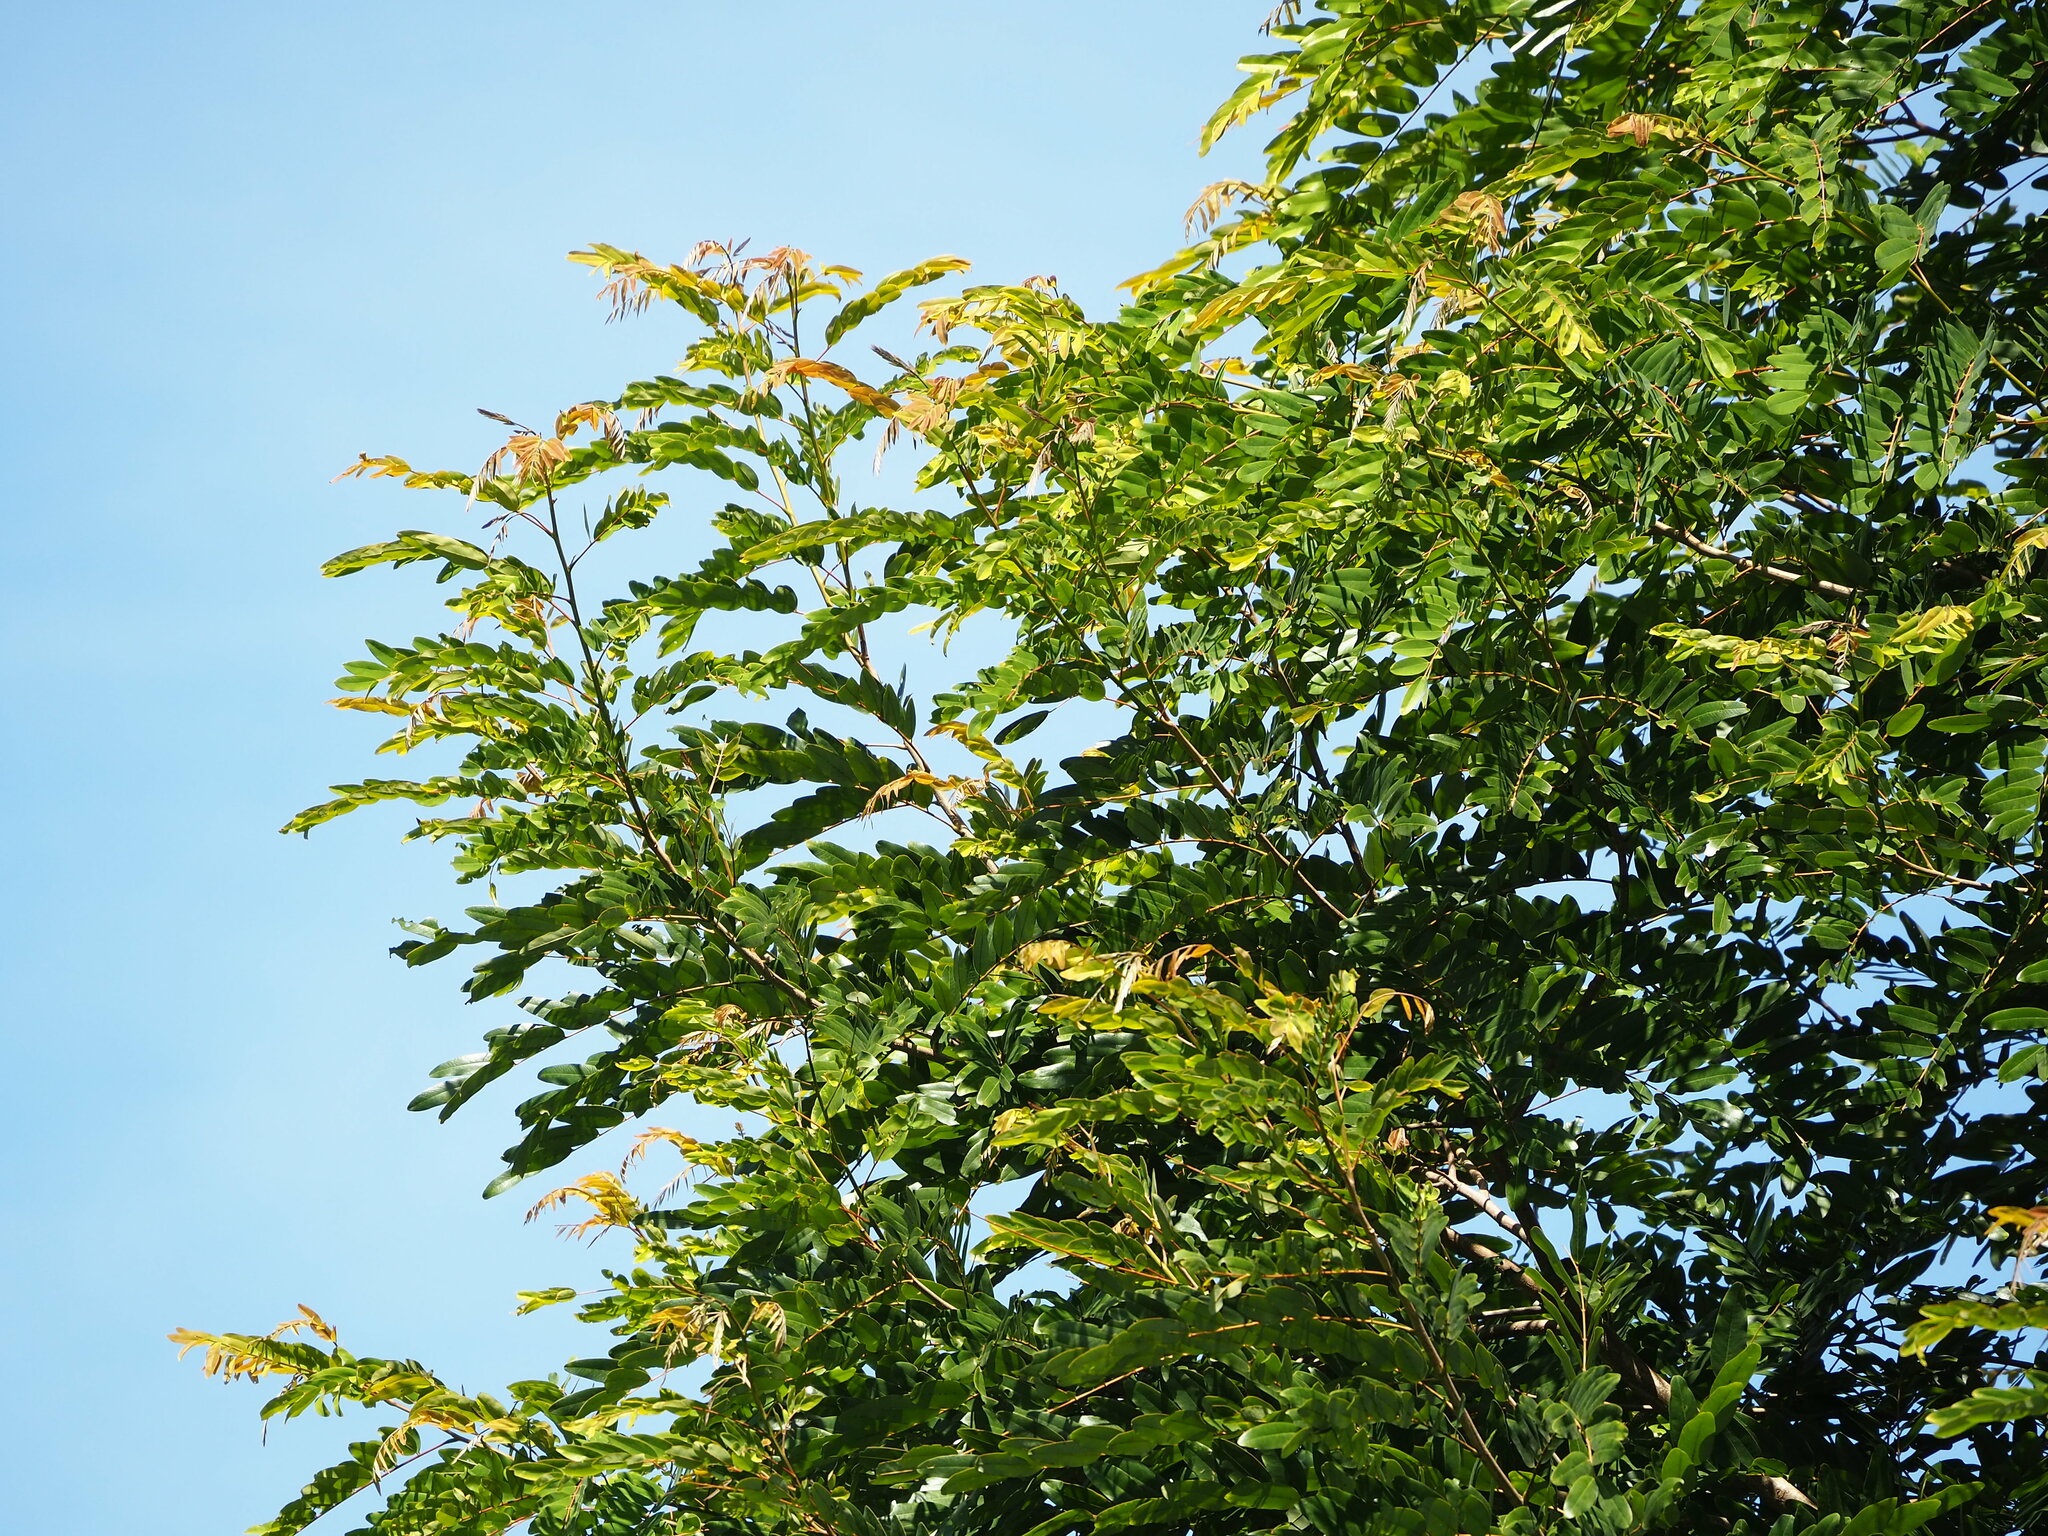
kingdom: Plantae
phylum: Tracheophyta
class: Magnoliopsida
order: Fabales
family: Fabaceae
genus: Senna
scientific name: Senna siamea
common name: Siamese cassia
